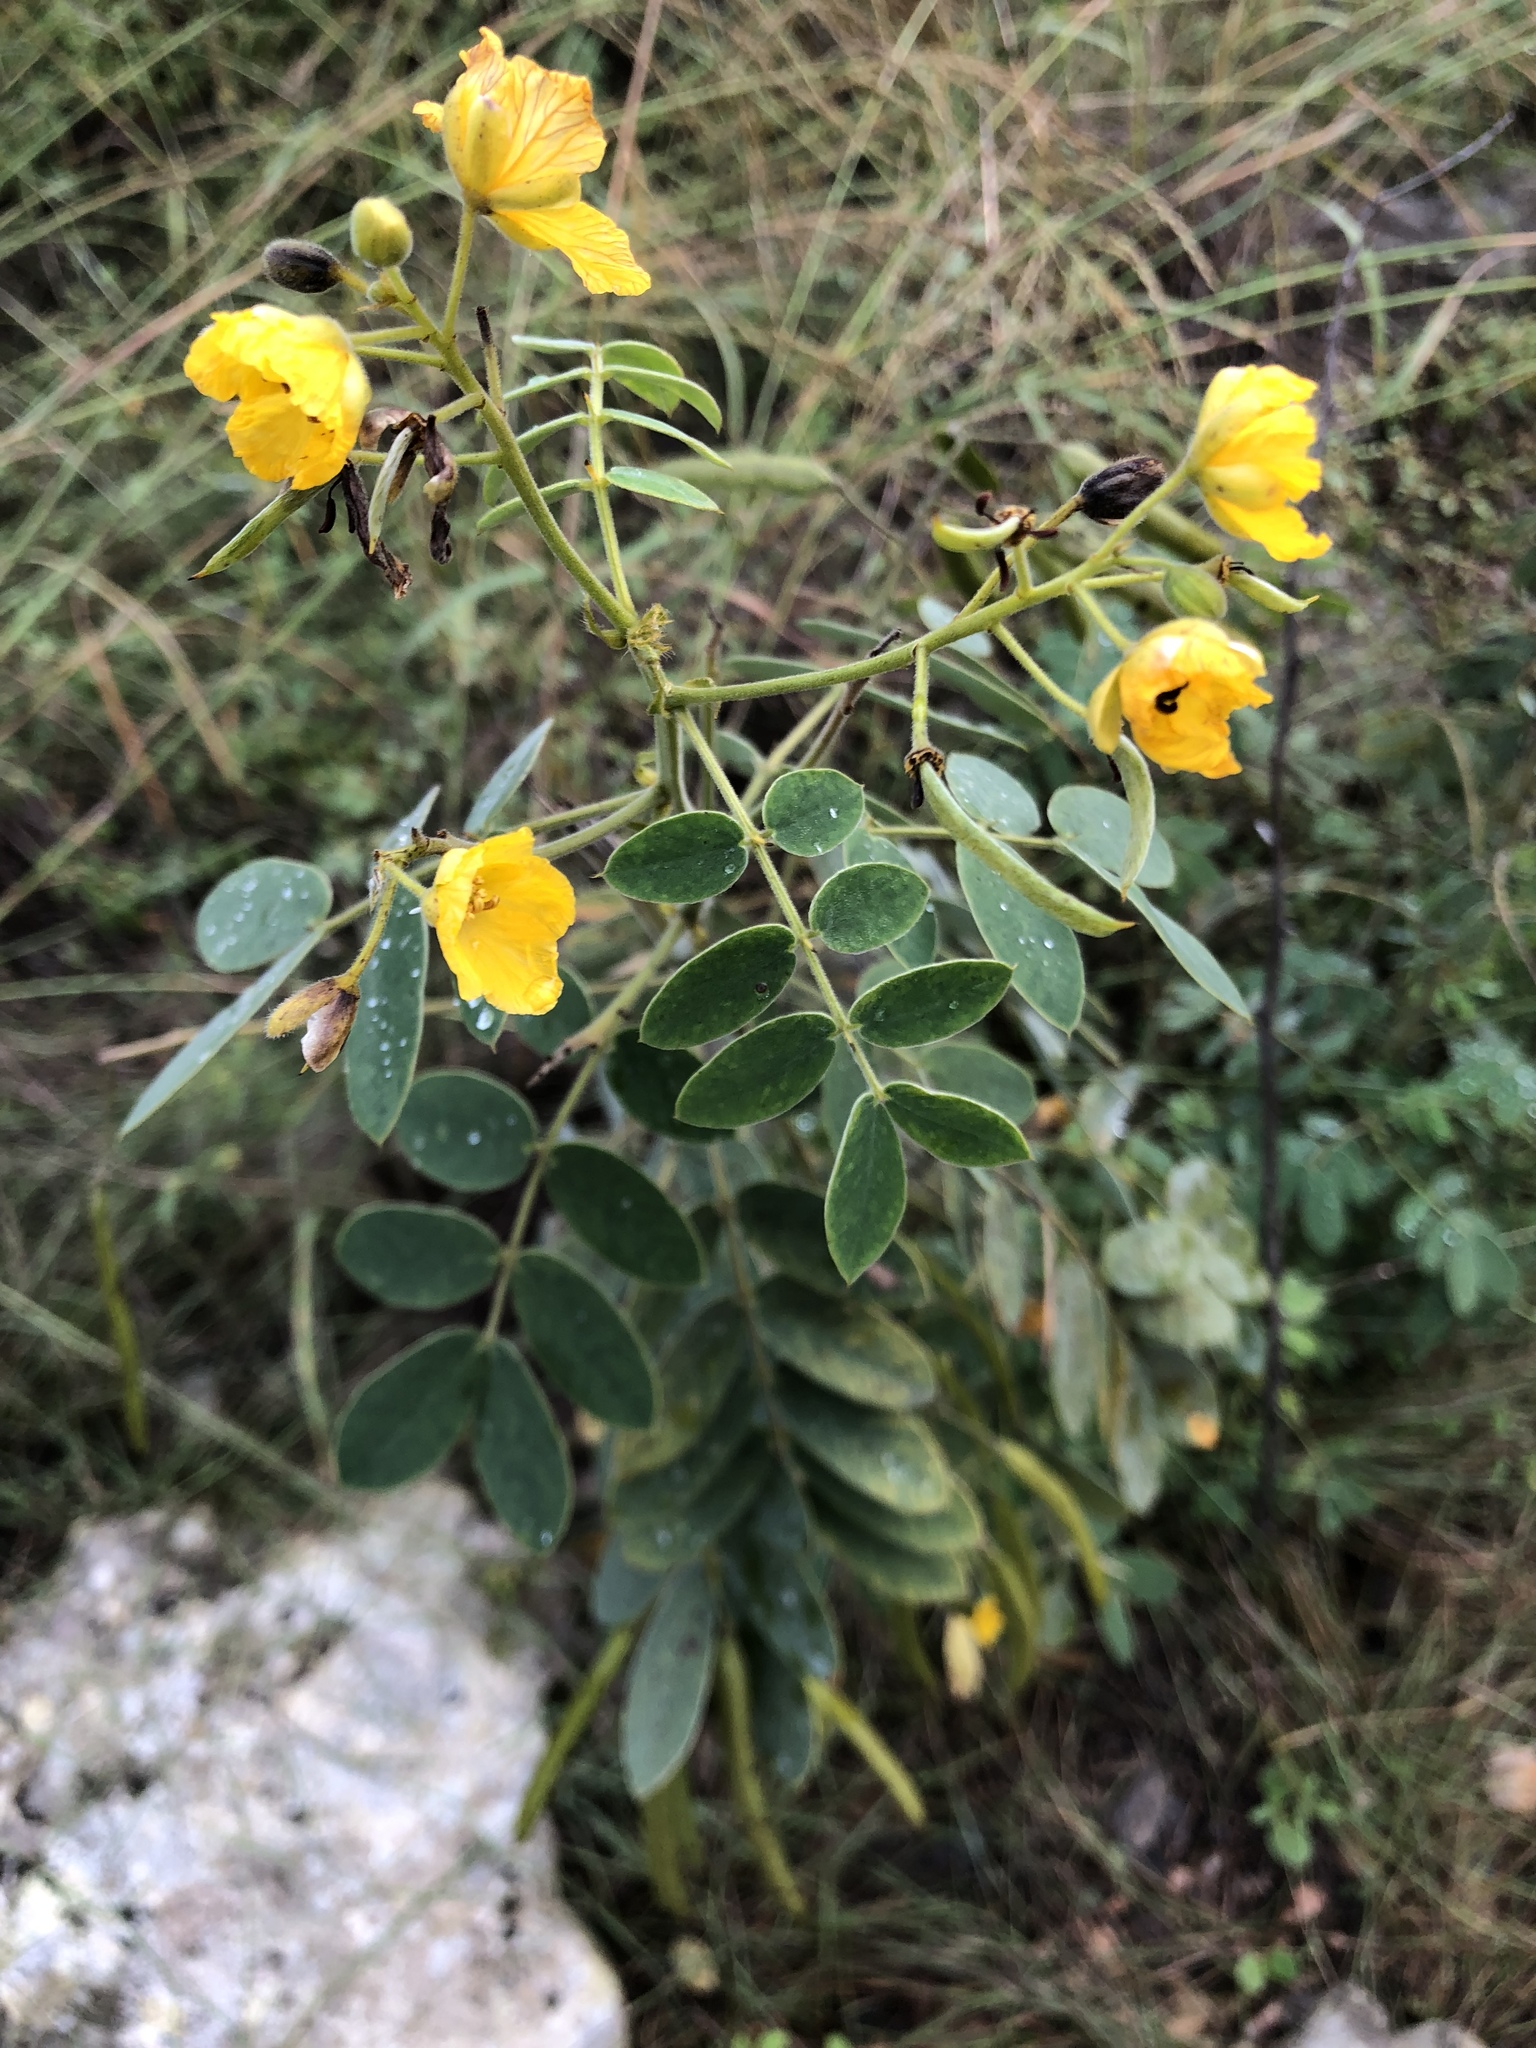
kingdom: Plantae
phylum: Tracheophyta
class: Magnoliopsida
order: Fabales
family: Fabaceae
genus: Senna
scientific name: Senna lindheimeriana
